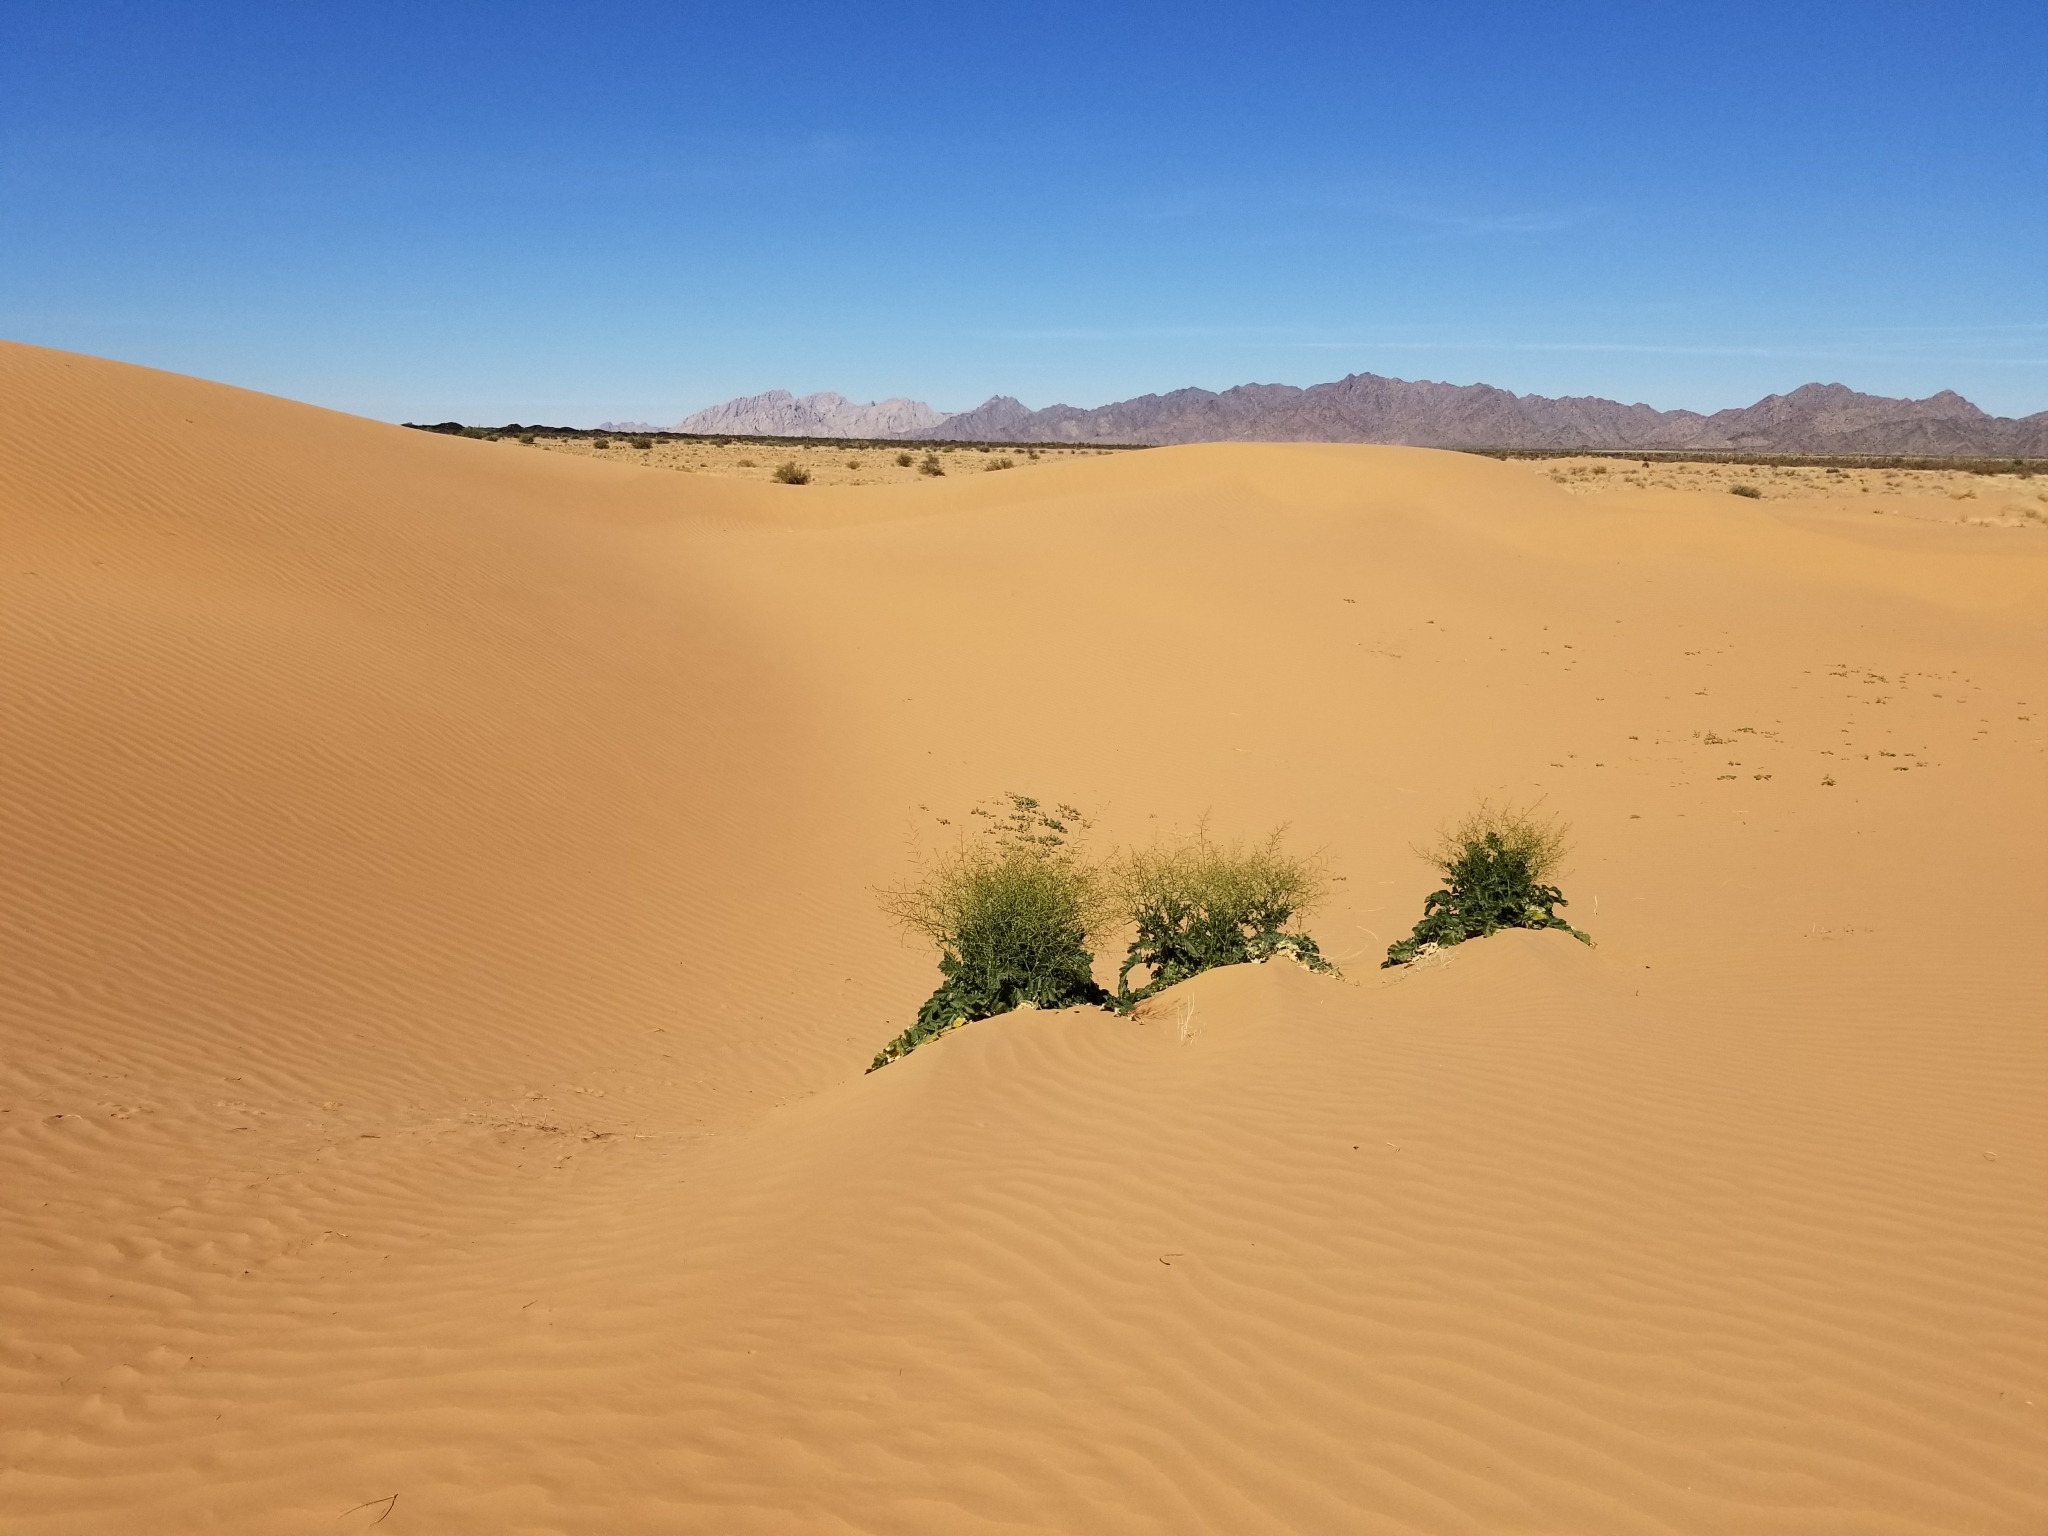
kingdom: Plantae
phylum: Tracheophyta
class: Magnoliopsida
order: Brassicales
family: Brassicaceae
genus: Brassica
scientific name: Brassica tournefortii
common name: Pale cabbage
